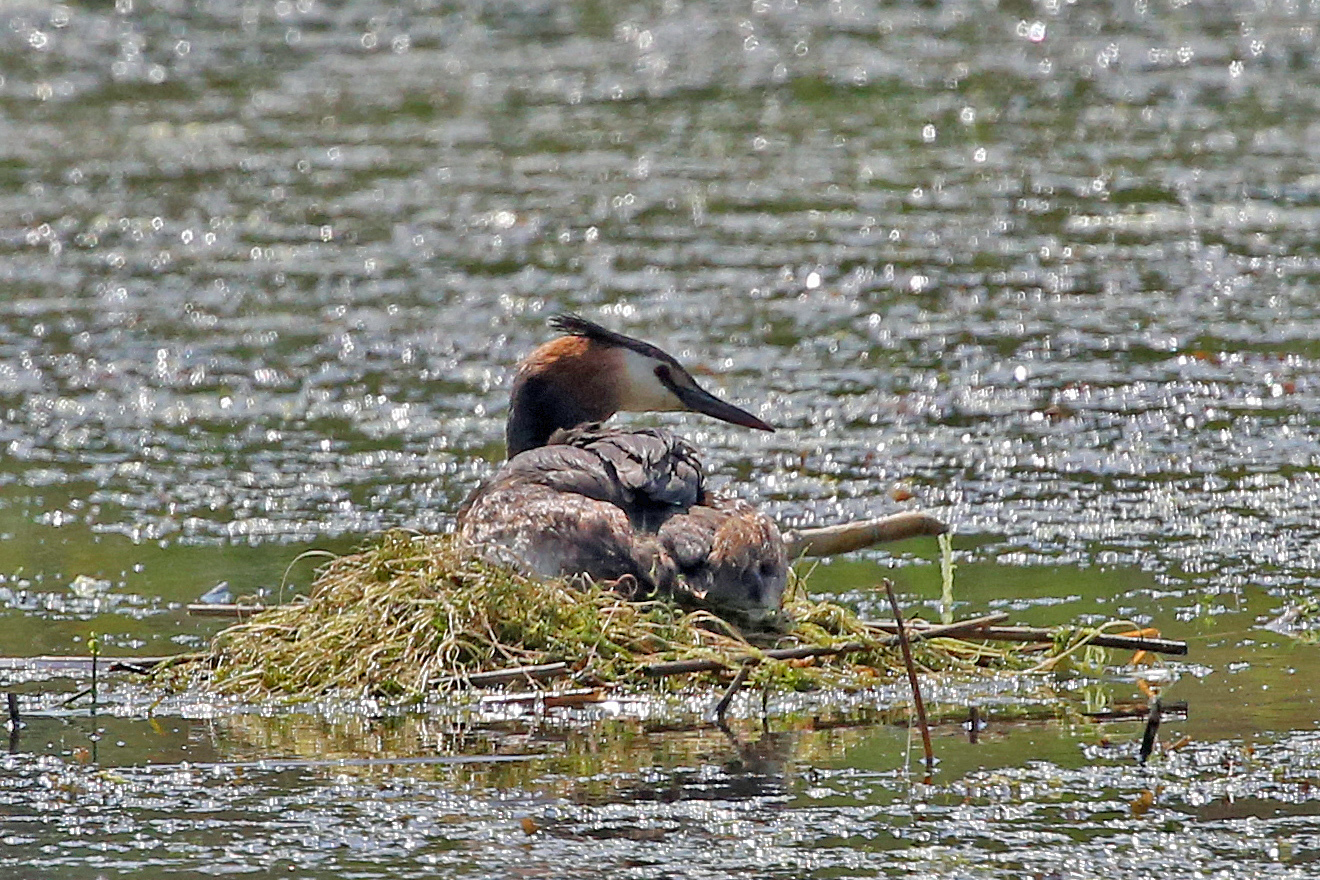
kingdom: Animalia
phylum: Chordata
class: Aves
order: Podicipediformes
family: Podicipedidae
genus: Podiceps
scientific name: Podiceps cristatus
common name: Great crested grebe
